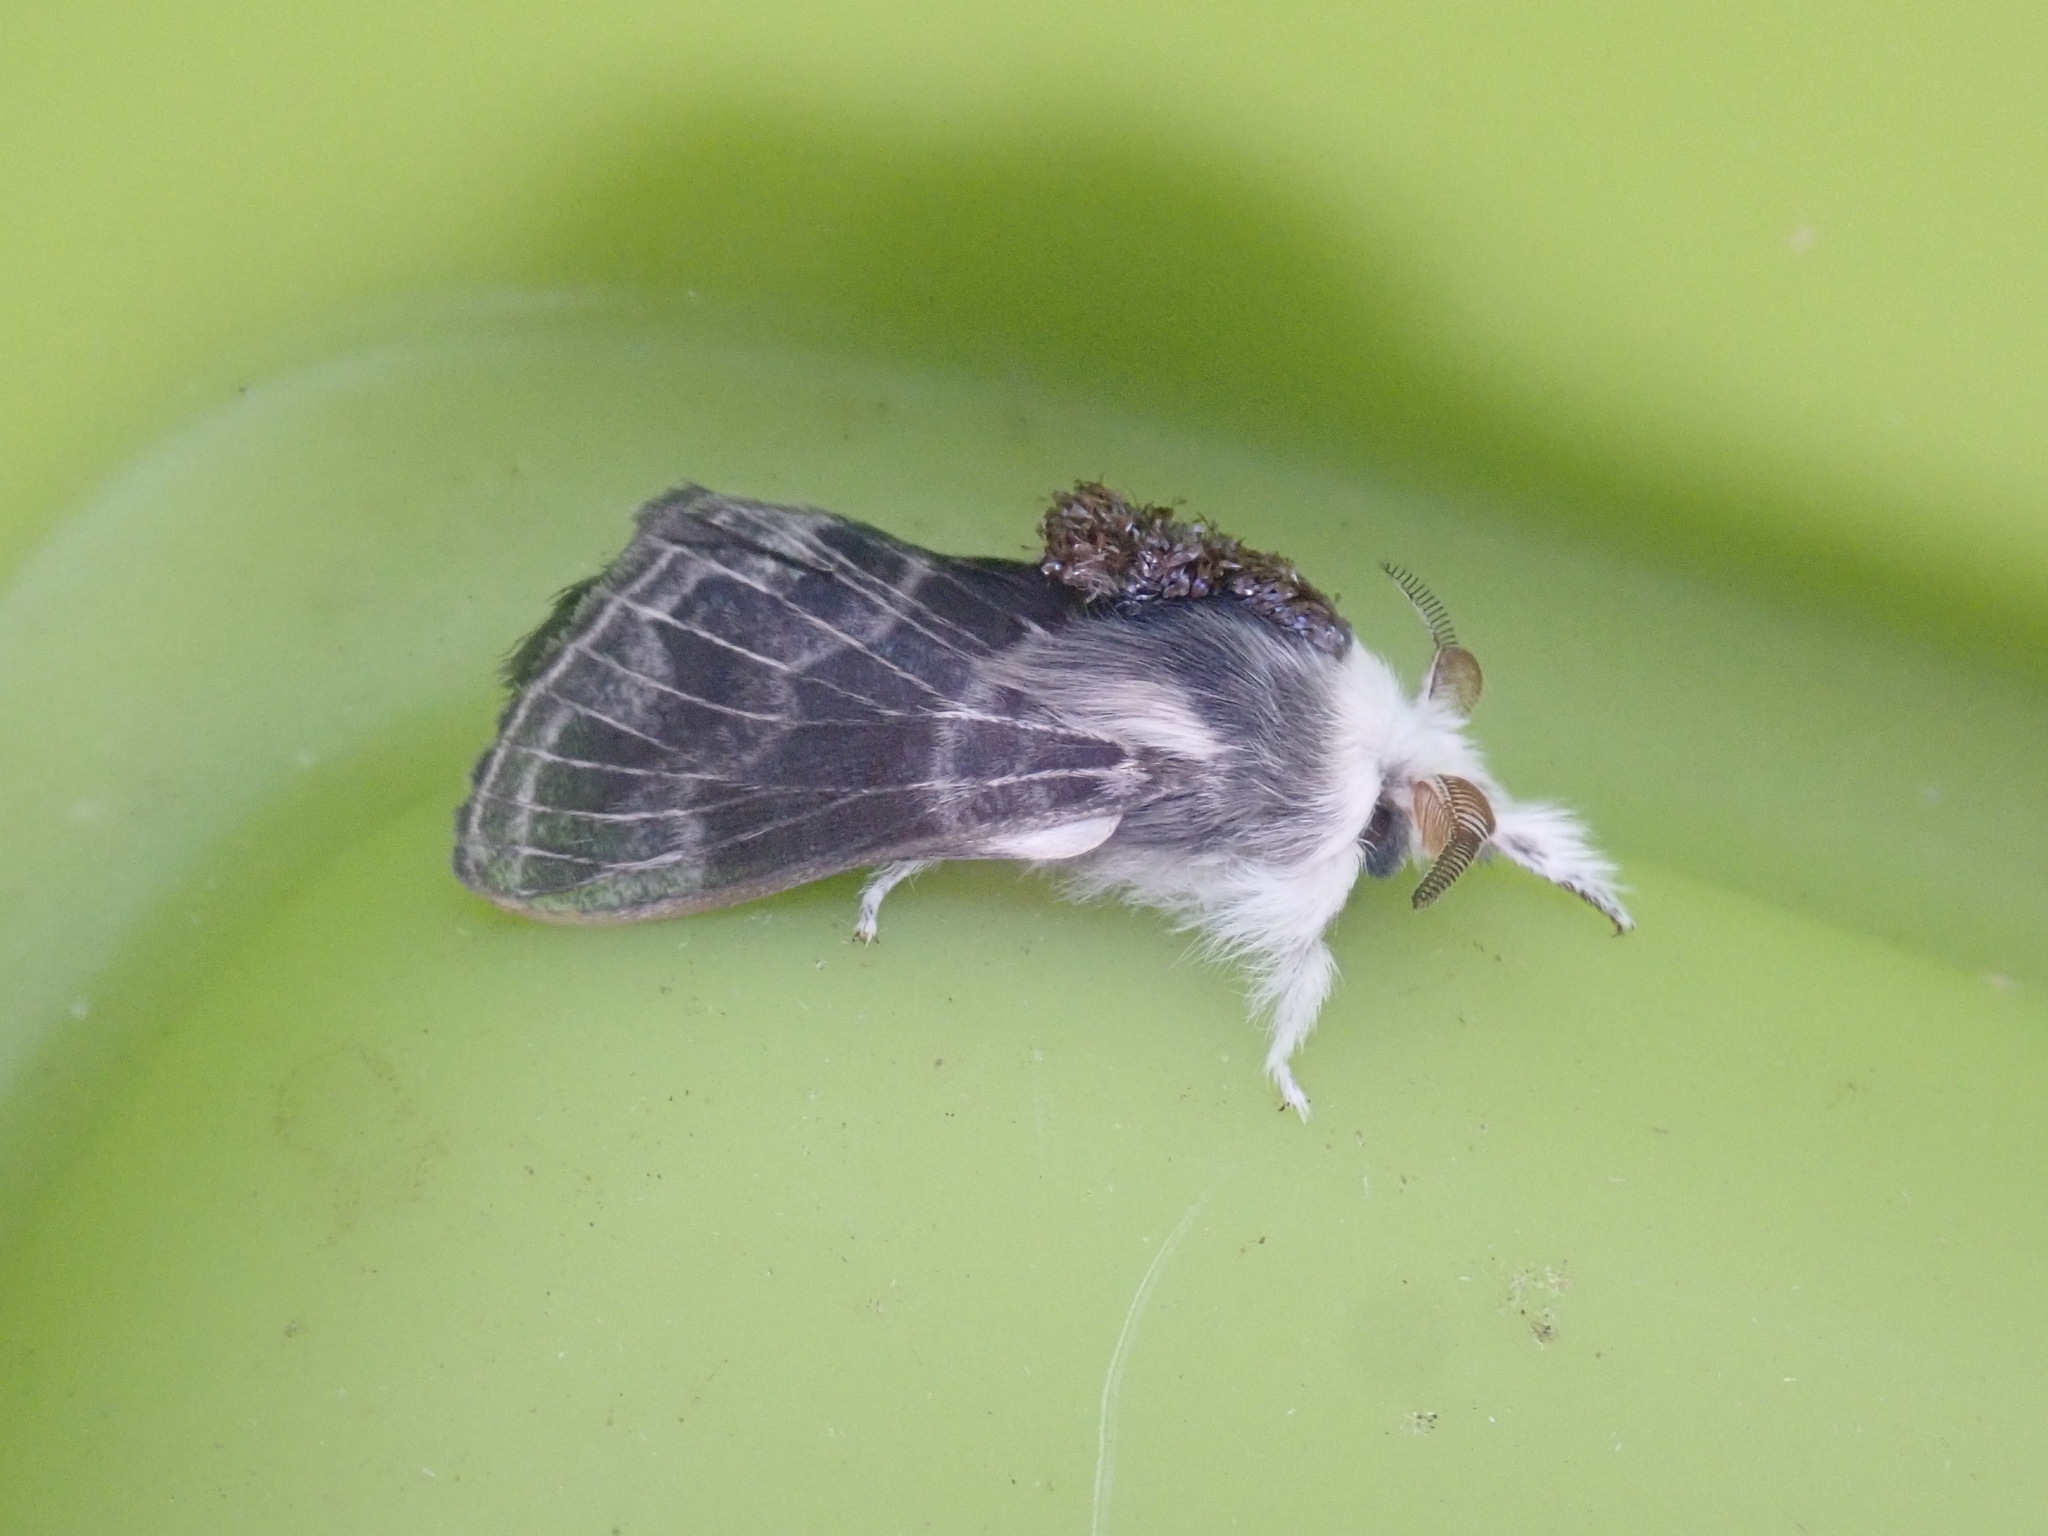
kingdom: Animalia
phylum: Arthropoda
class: Insecta
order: Lepidoptera
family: Lasiocampidae
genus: Tolype
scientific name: Tolype laricis
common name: Larch tolype moth
